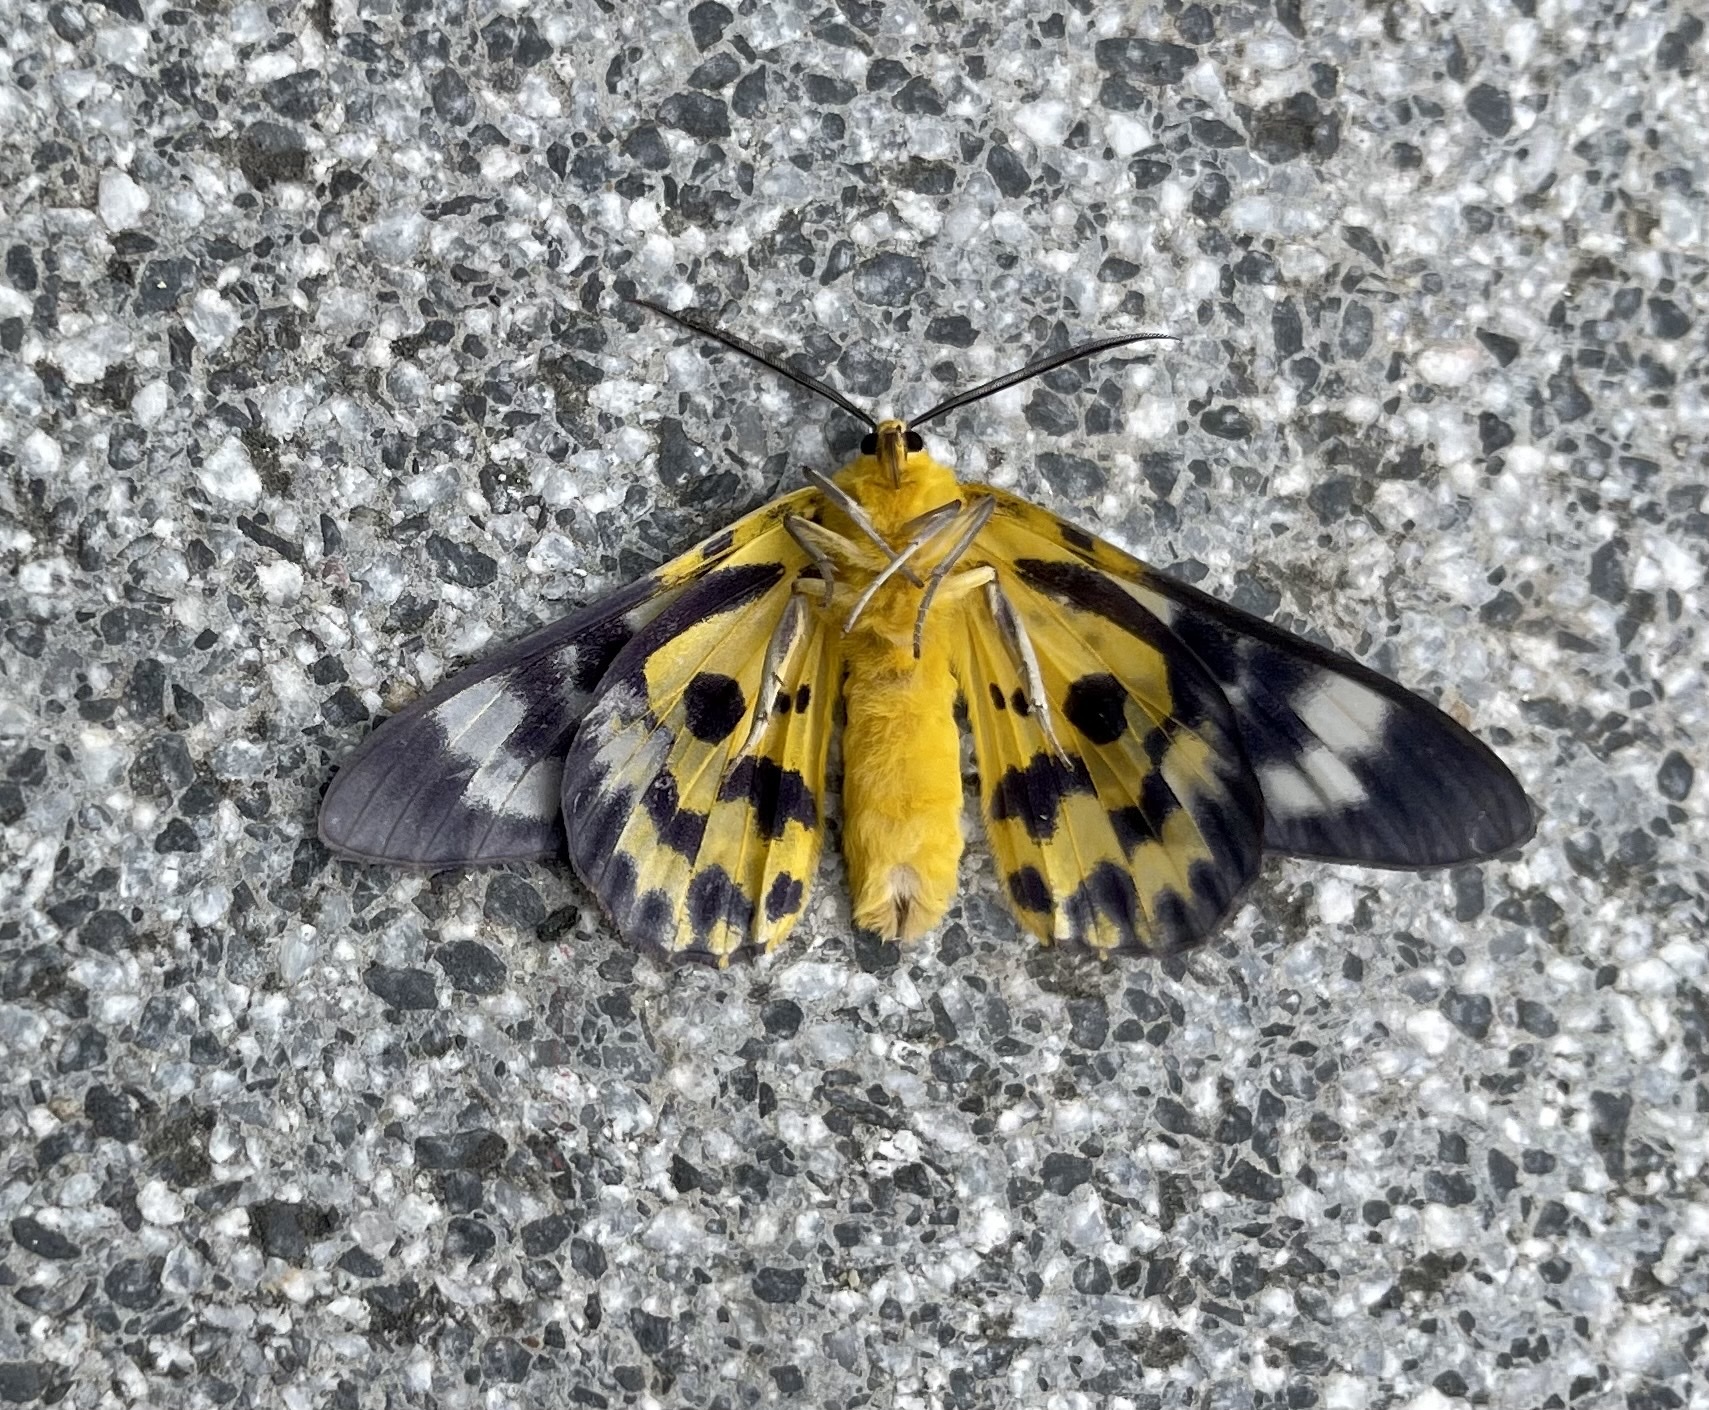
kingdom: Animalia
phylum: Arthropoda
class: Insecta
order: Lepidoptera
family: Geometridae
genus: Dysphania
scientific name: Dysphania militaris
